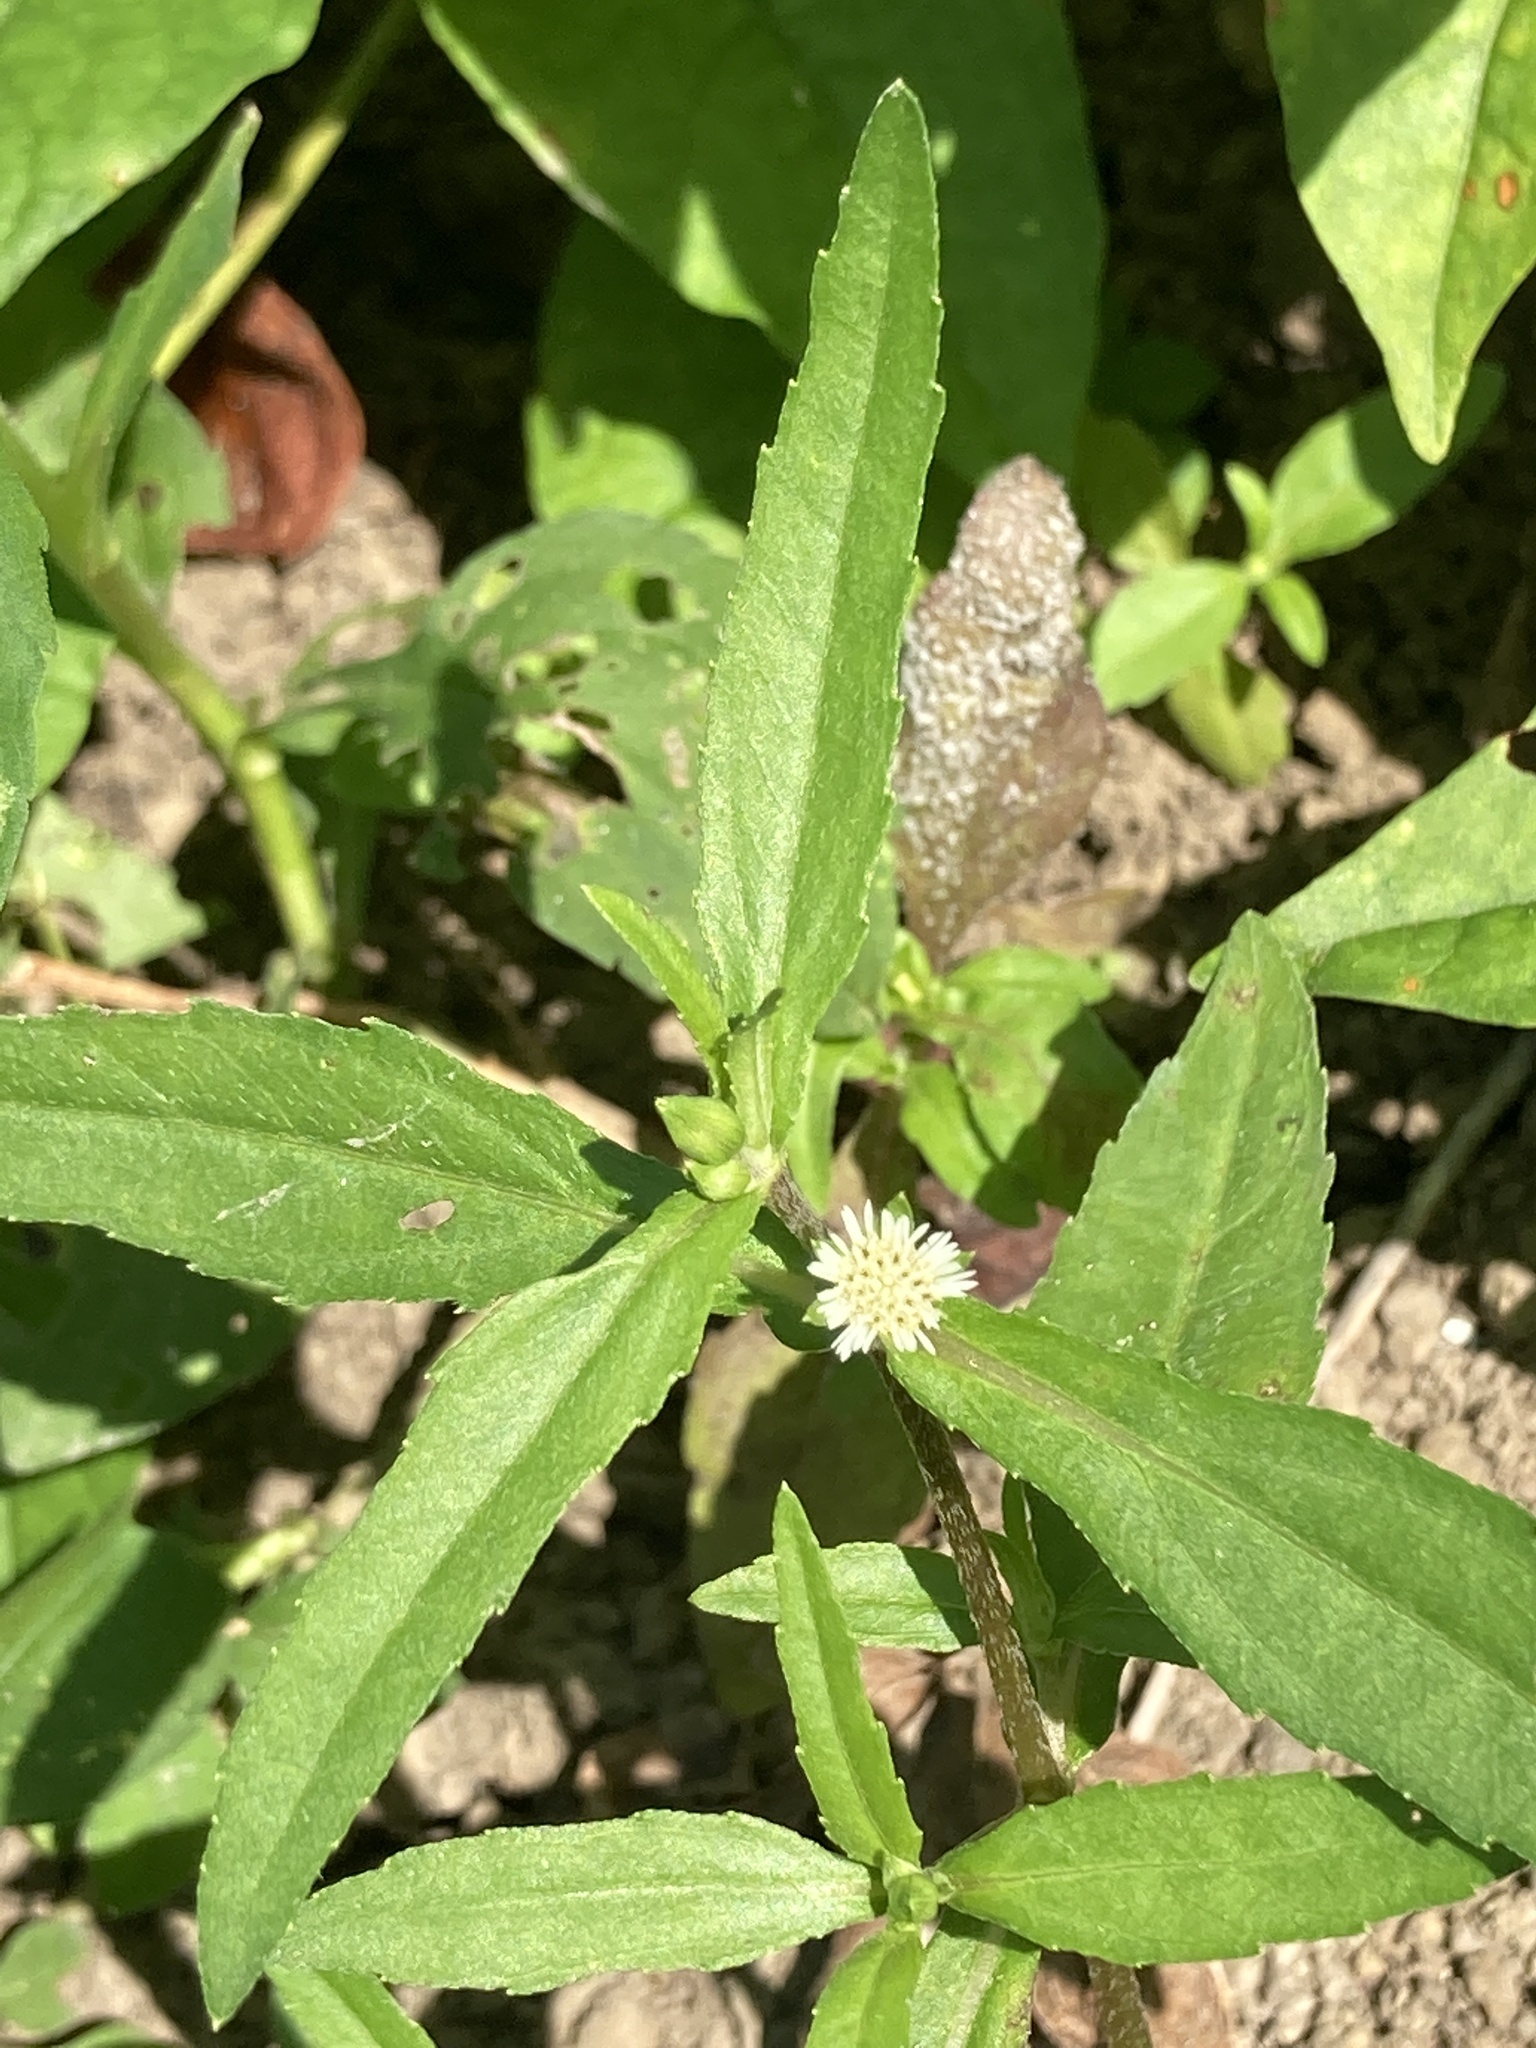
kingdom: Plantae
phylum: Tracheophyta
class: Magnoliopsida
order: Asterales
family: Asteraceae
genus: Eclipta
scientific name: Eclipta prostrata
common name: False daisy
